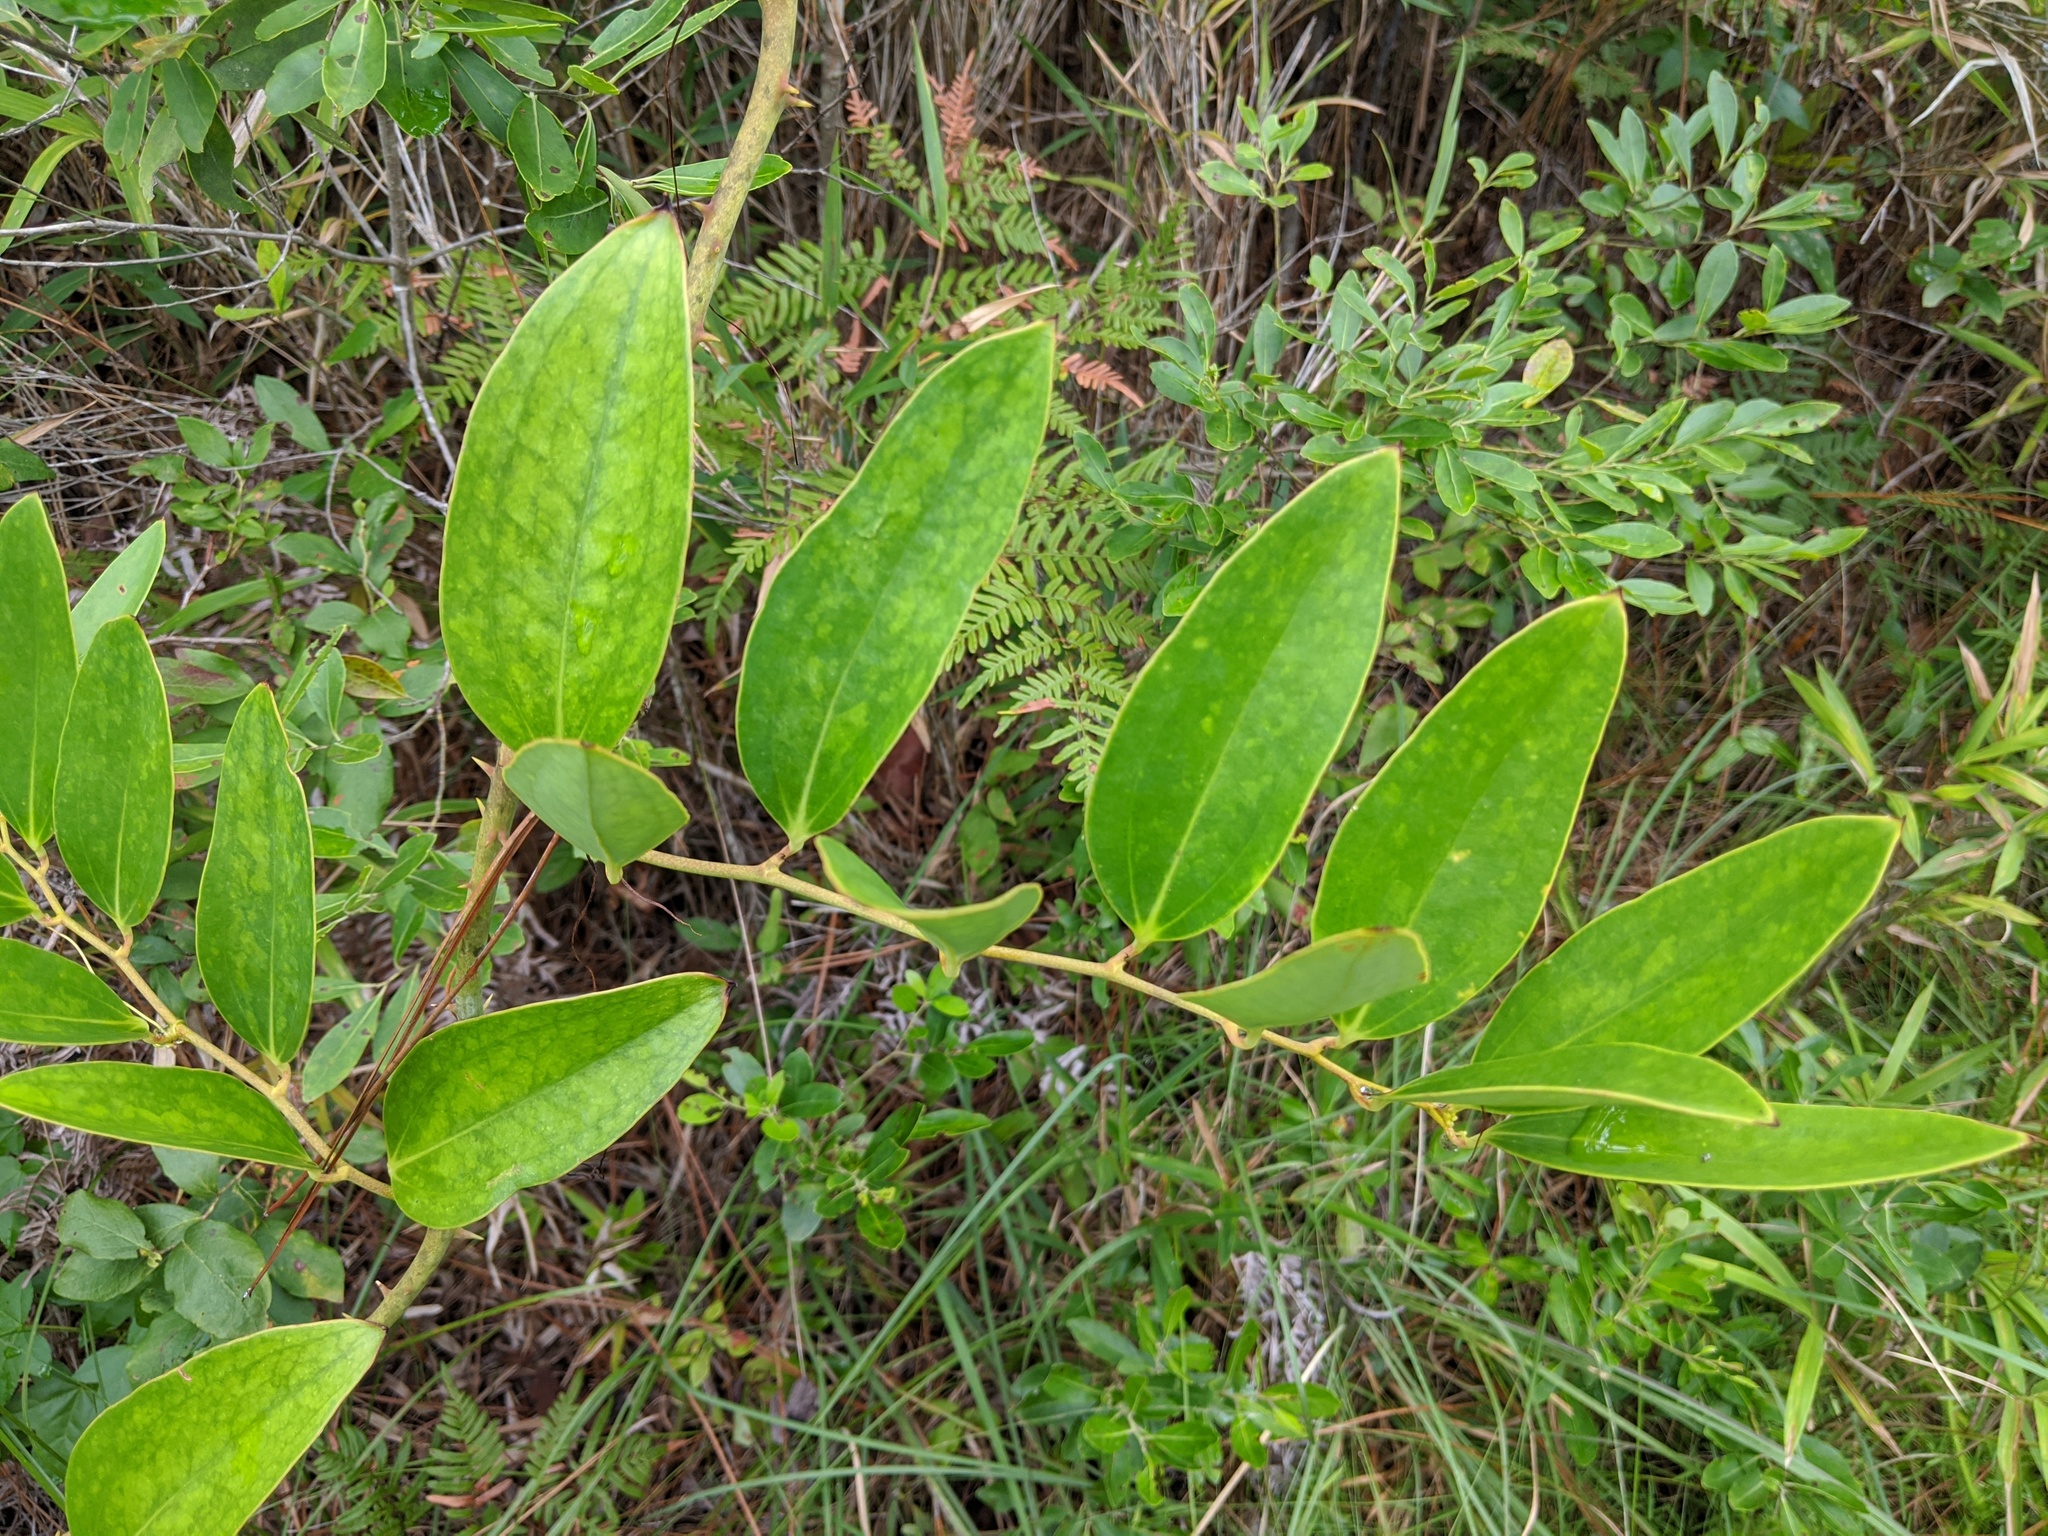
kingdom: Plantae
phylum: Tracheophyta
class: Liliopsida
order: Liliales
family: Smilacaceae
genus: Smilax
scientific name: Smilax laurifolia
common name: Bamboovine
